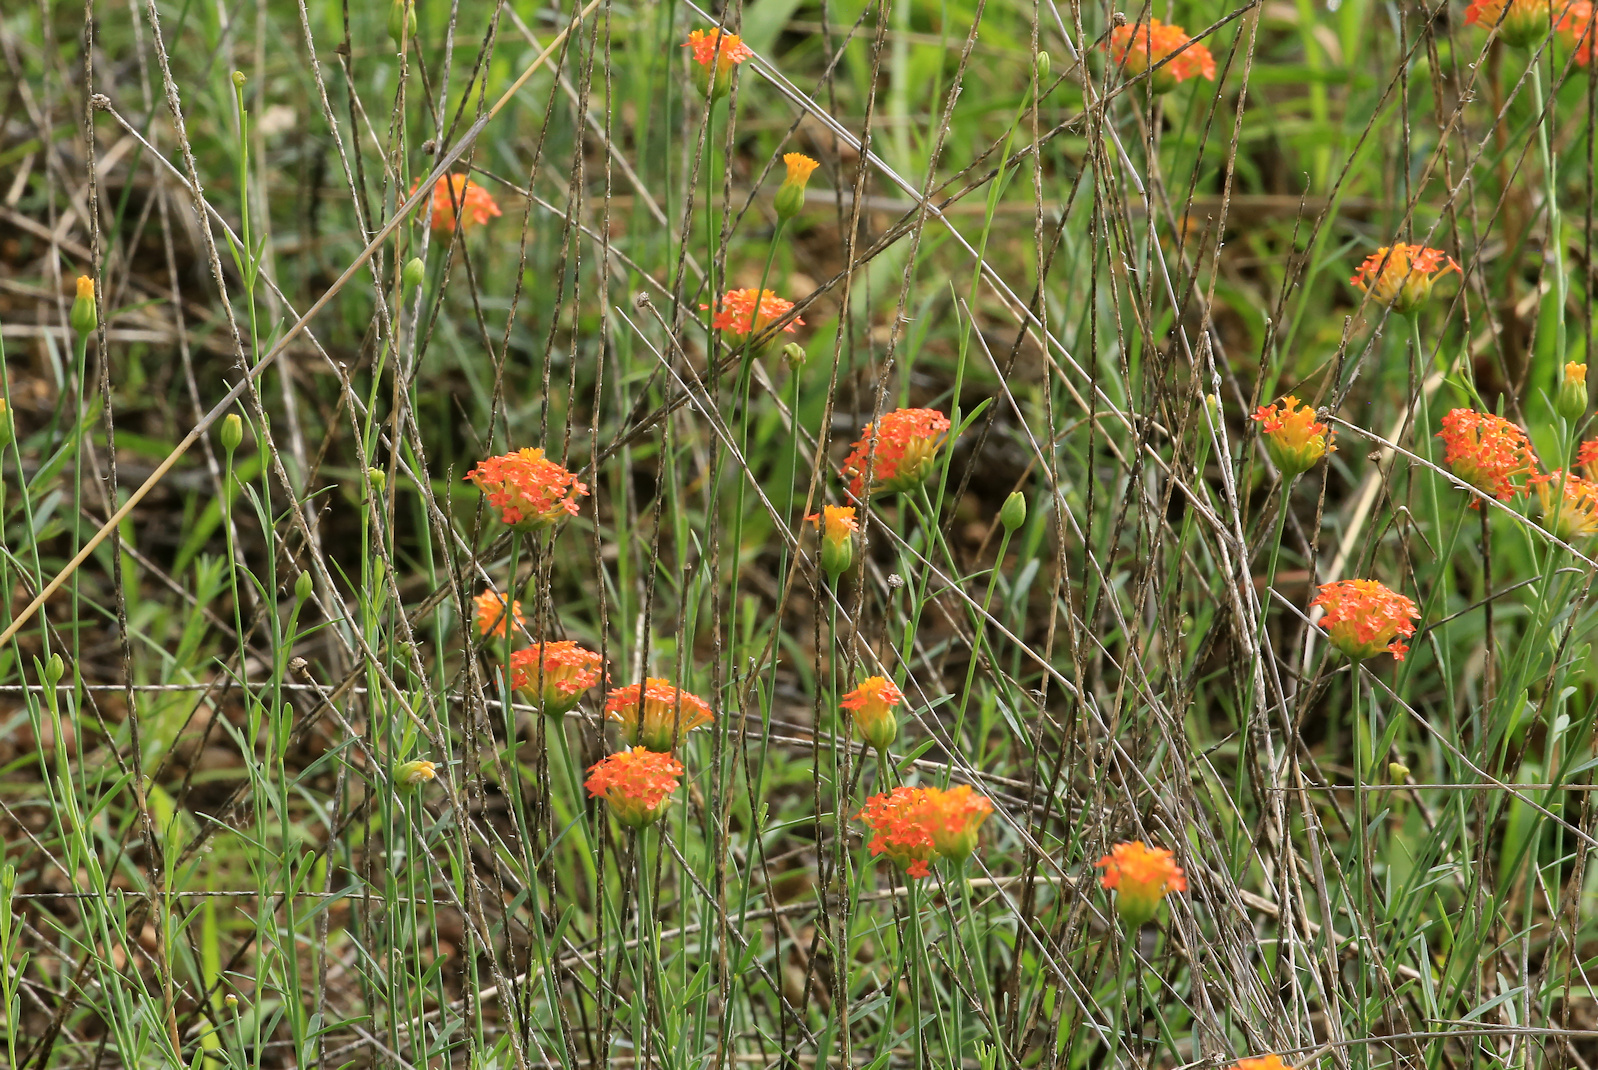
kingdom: Plantae
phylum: Tracheophyta
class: Magnoliopsida
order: Malvales
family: Thymelaeaceae
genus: Gnidia
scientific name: Gnidia rubescens
